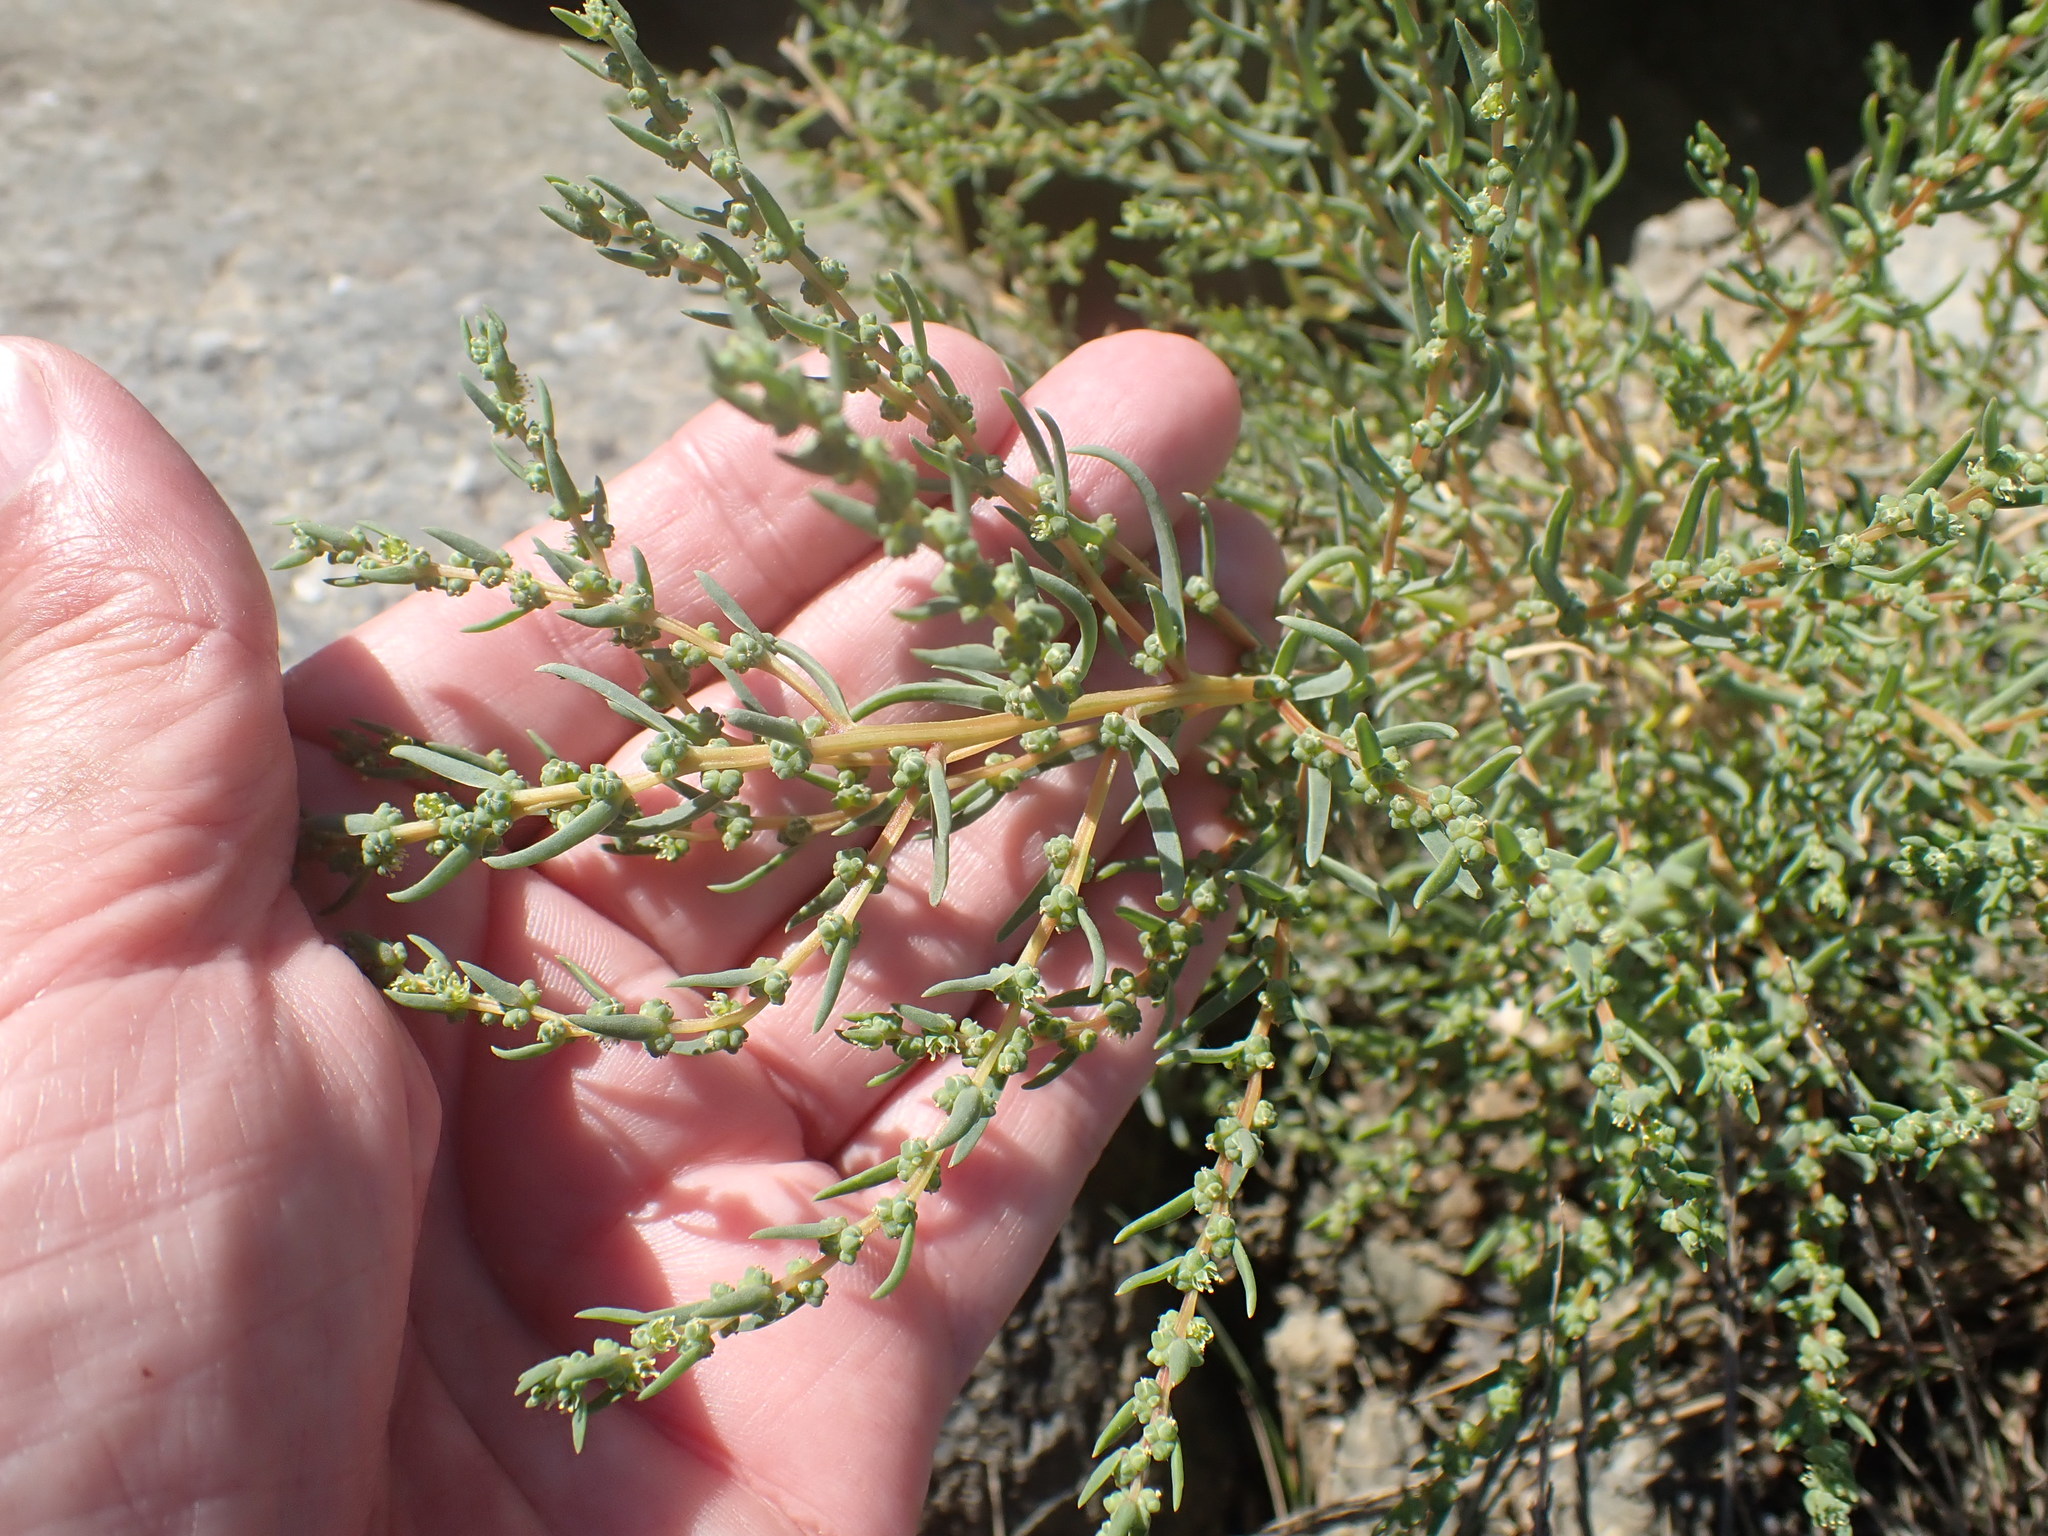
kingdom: Plantae
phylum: Tracheophyta
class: Magnoliopsida
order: Caryophyllales
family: Amaranthaceae
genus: Suaeda
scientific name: Suaeda maritima
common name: Annual sea-blite
